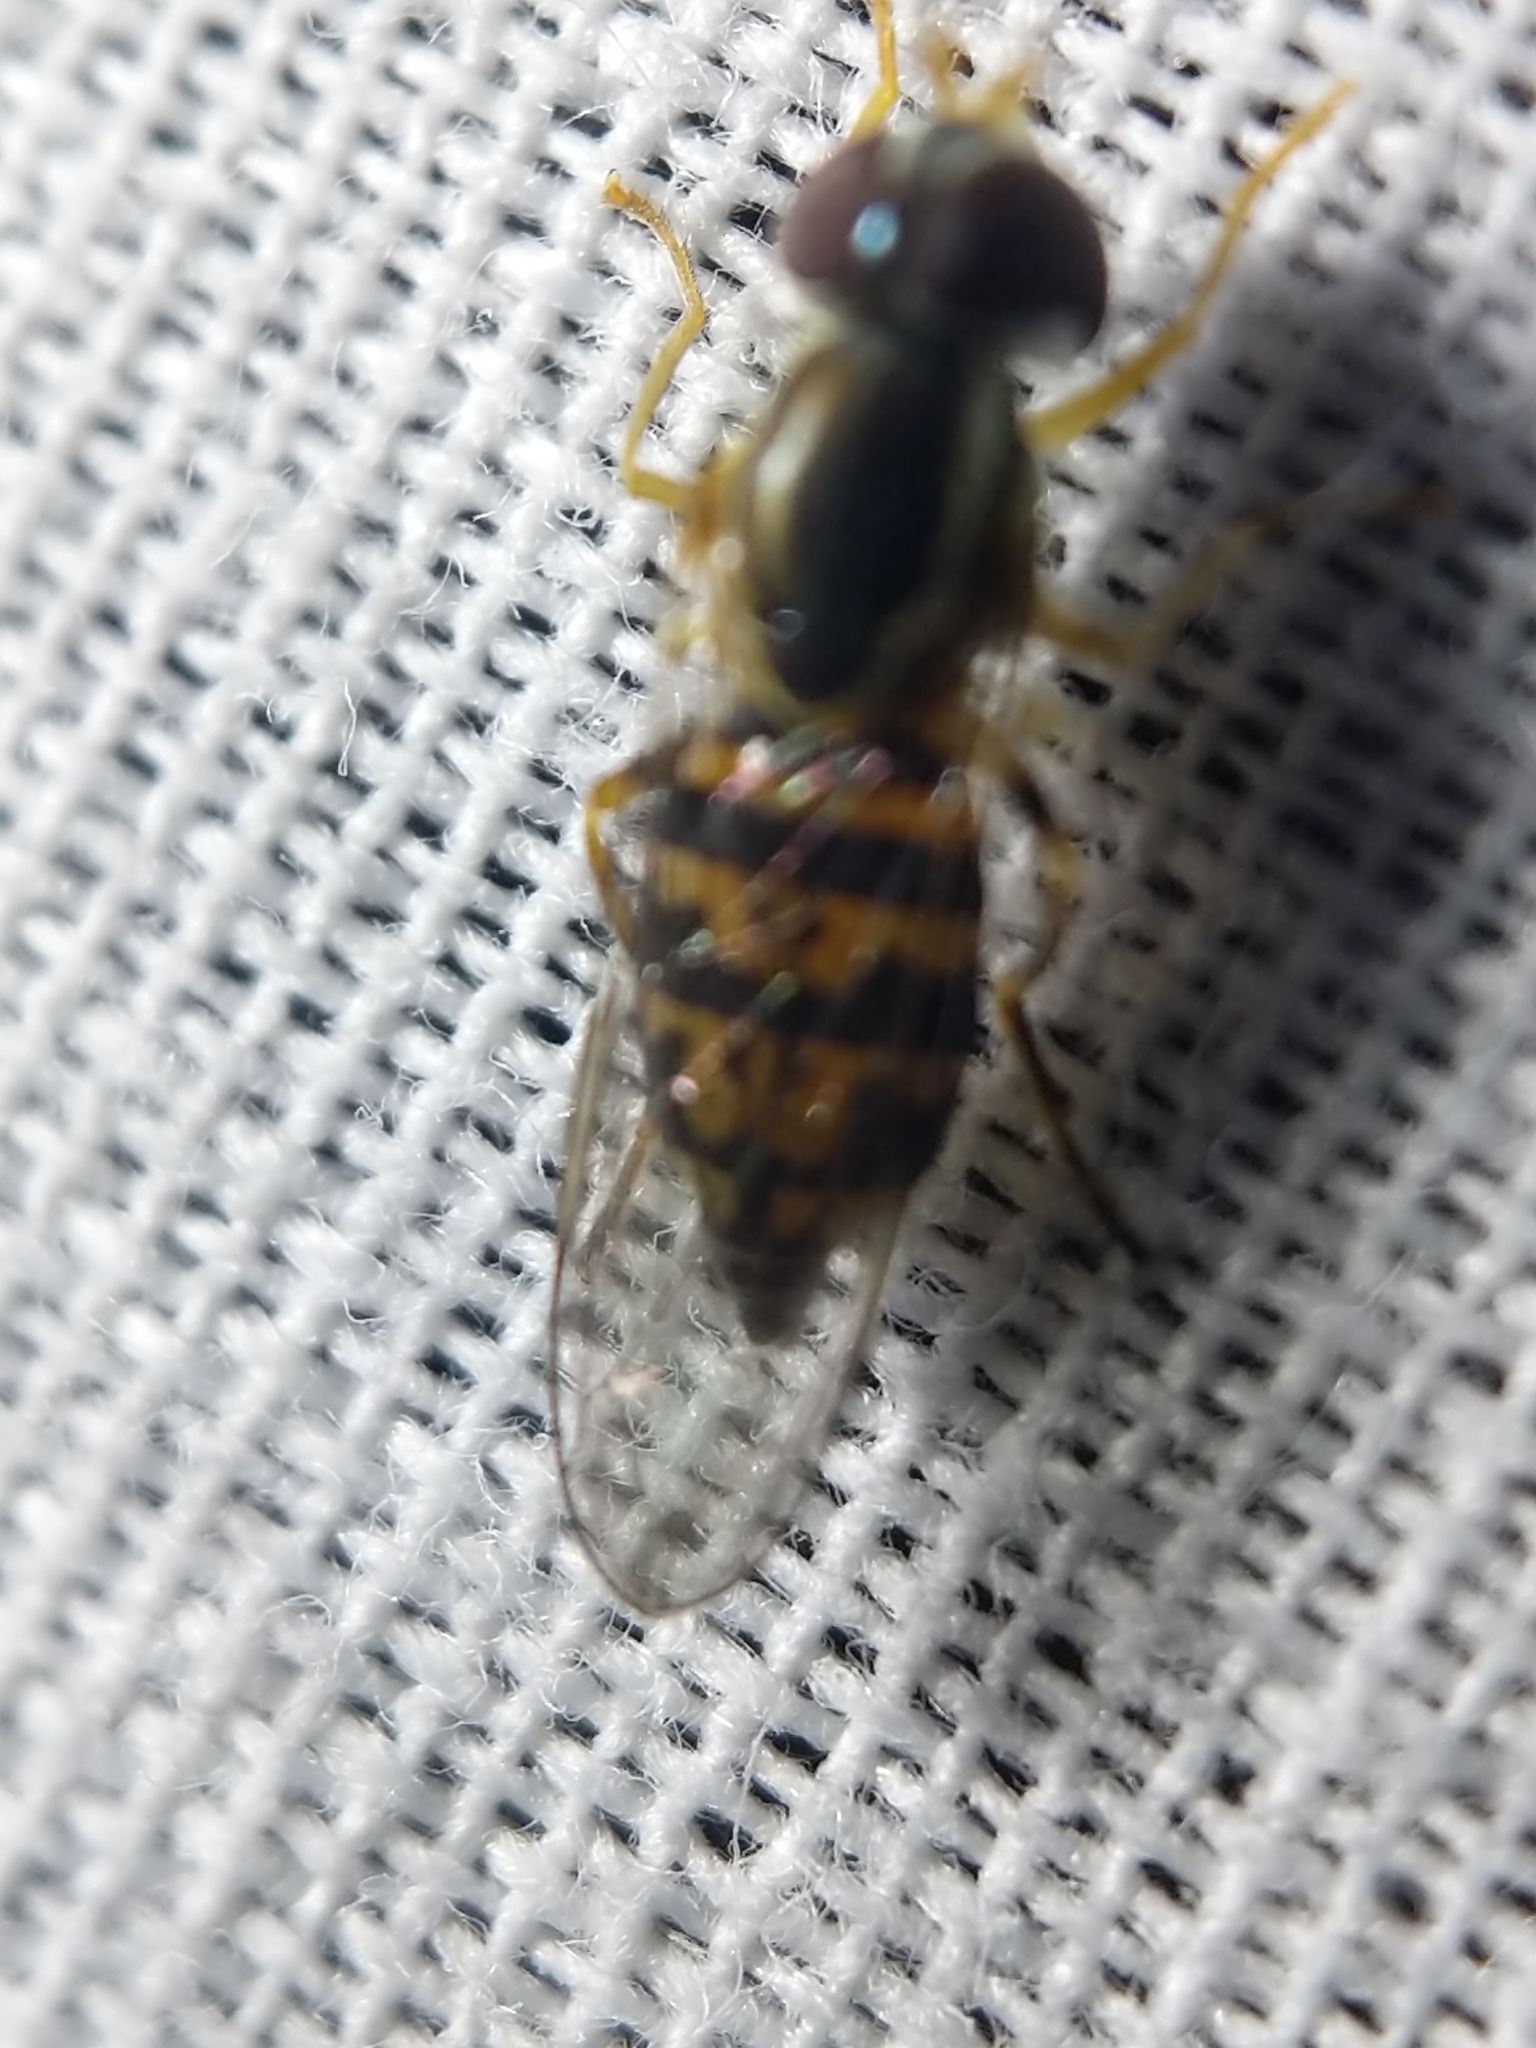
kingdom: Animalia
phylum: Arthropoda
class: Insecta
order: Diptera
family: Syrphidae
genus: Toxomerus
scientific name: Toxomerus geminatus
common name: Eastern calligrapher
